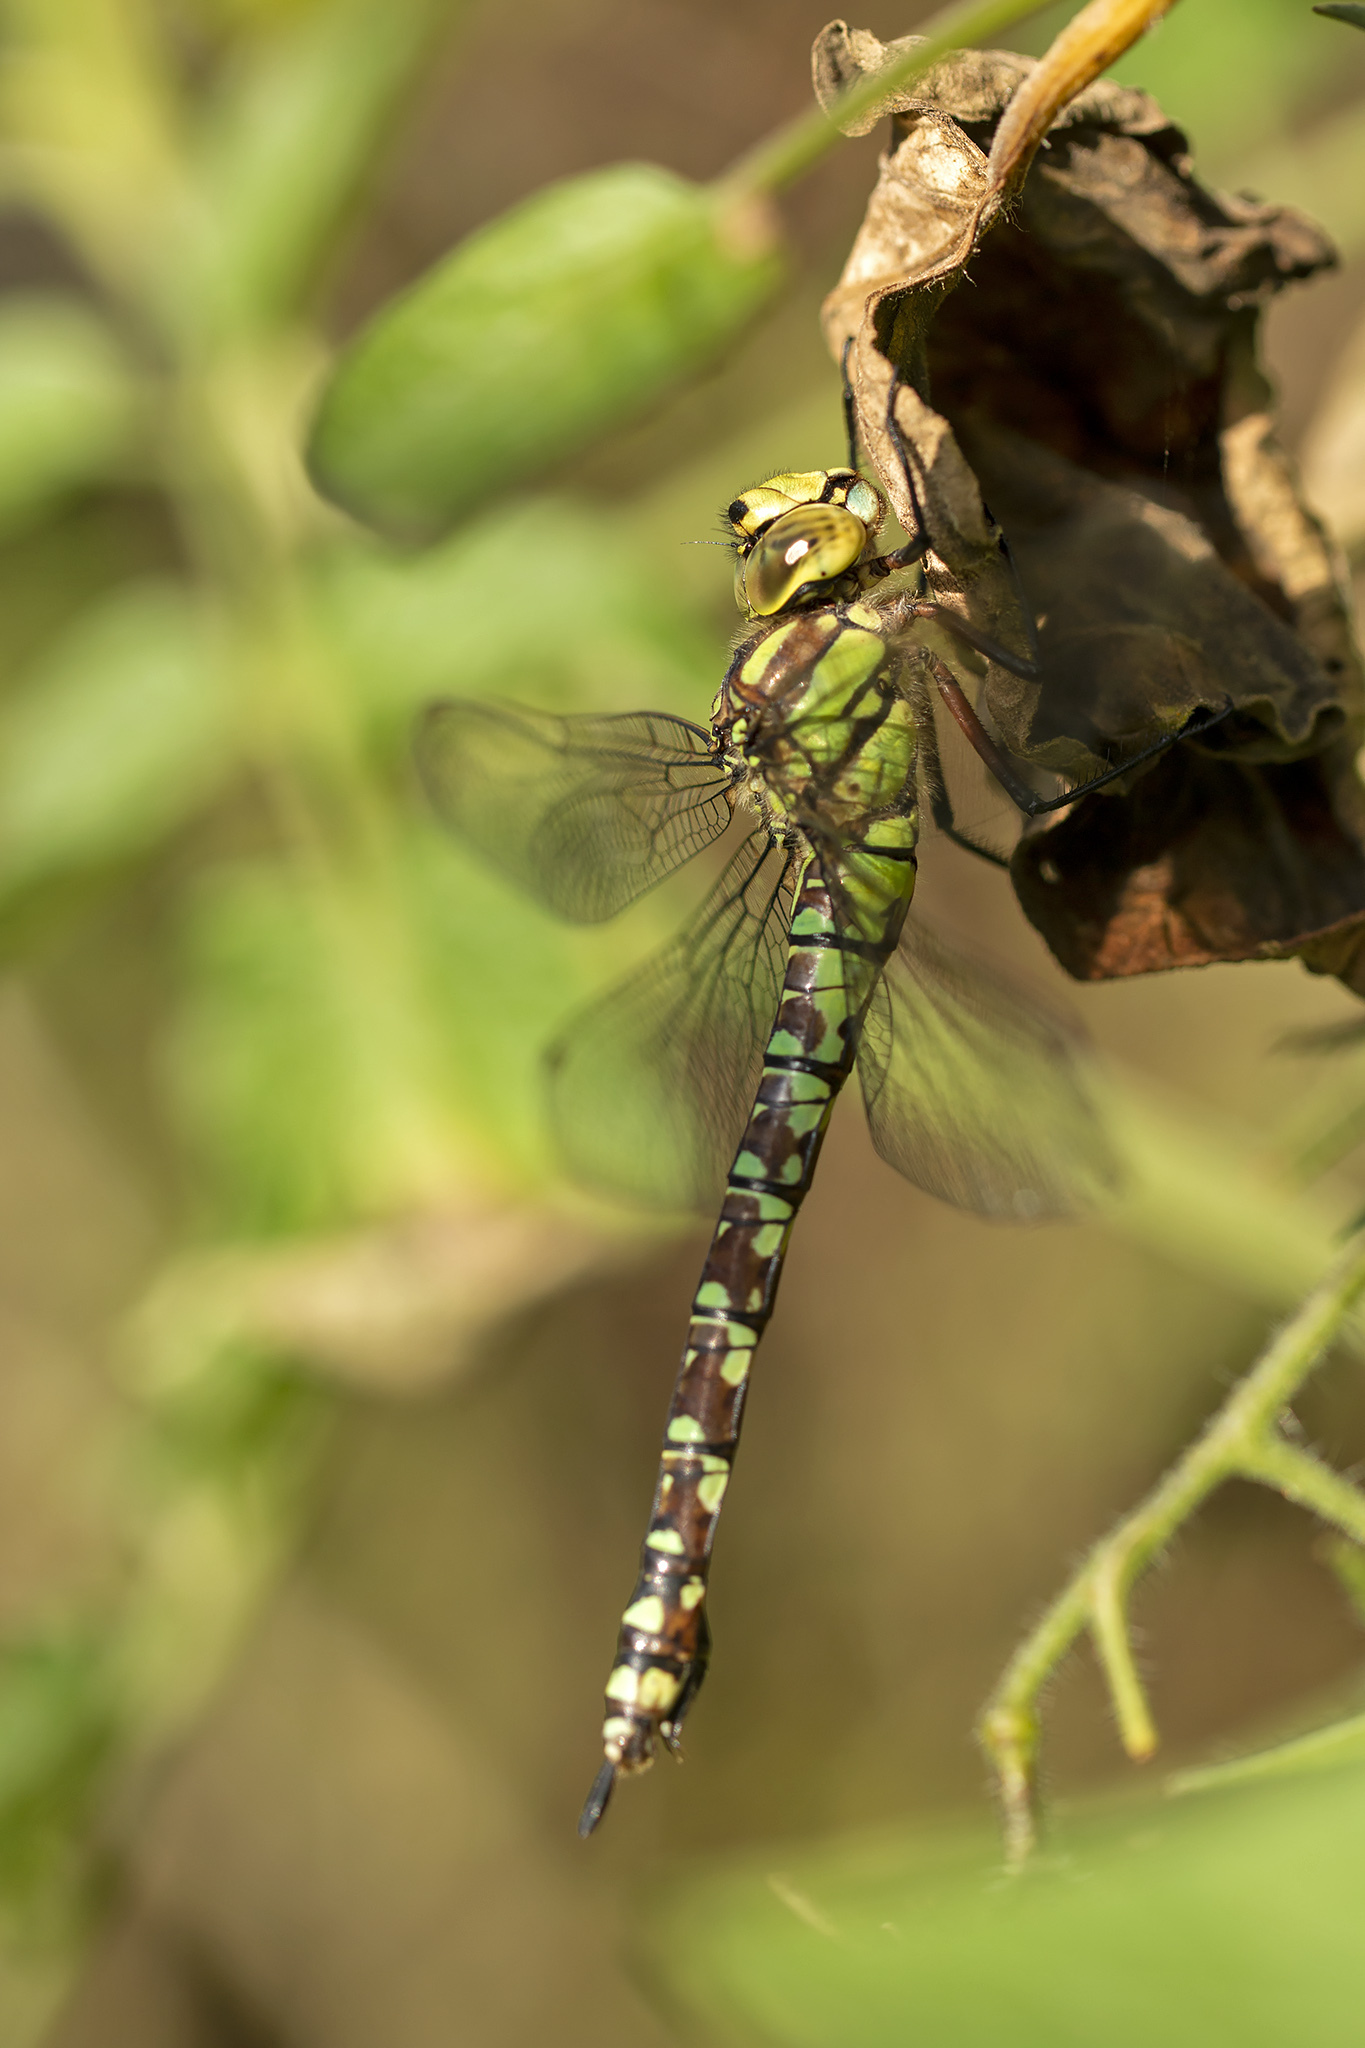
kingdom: Animalia
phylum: Arthropoda
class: Insecta
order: Odonata
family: Aeshnidae
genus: Aeshna
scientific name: Aeshna cyanea
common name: Southern hawker
